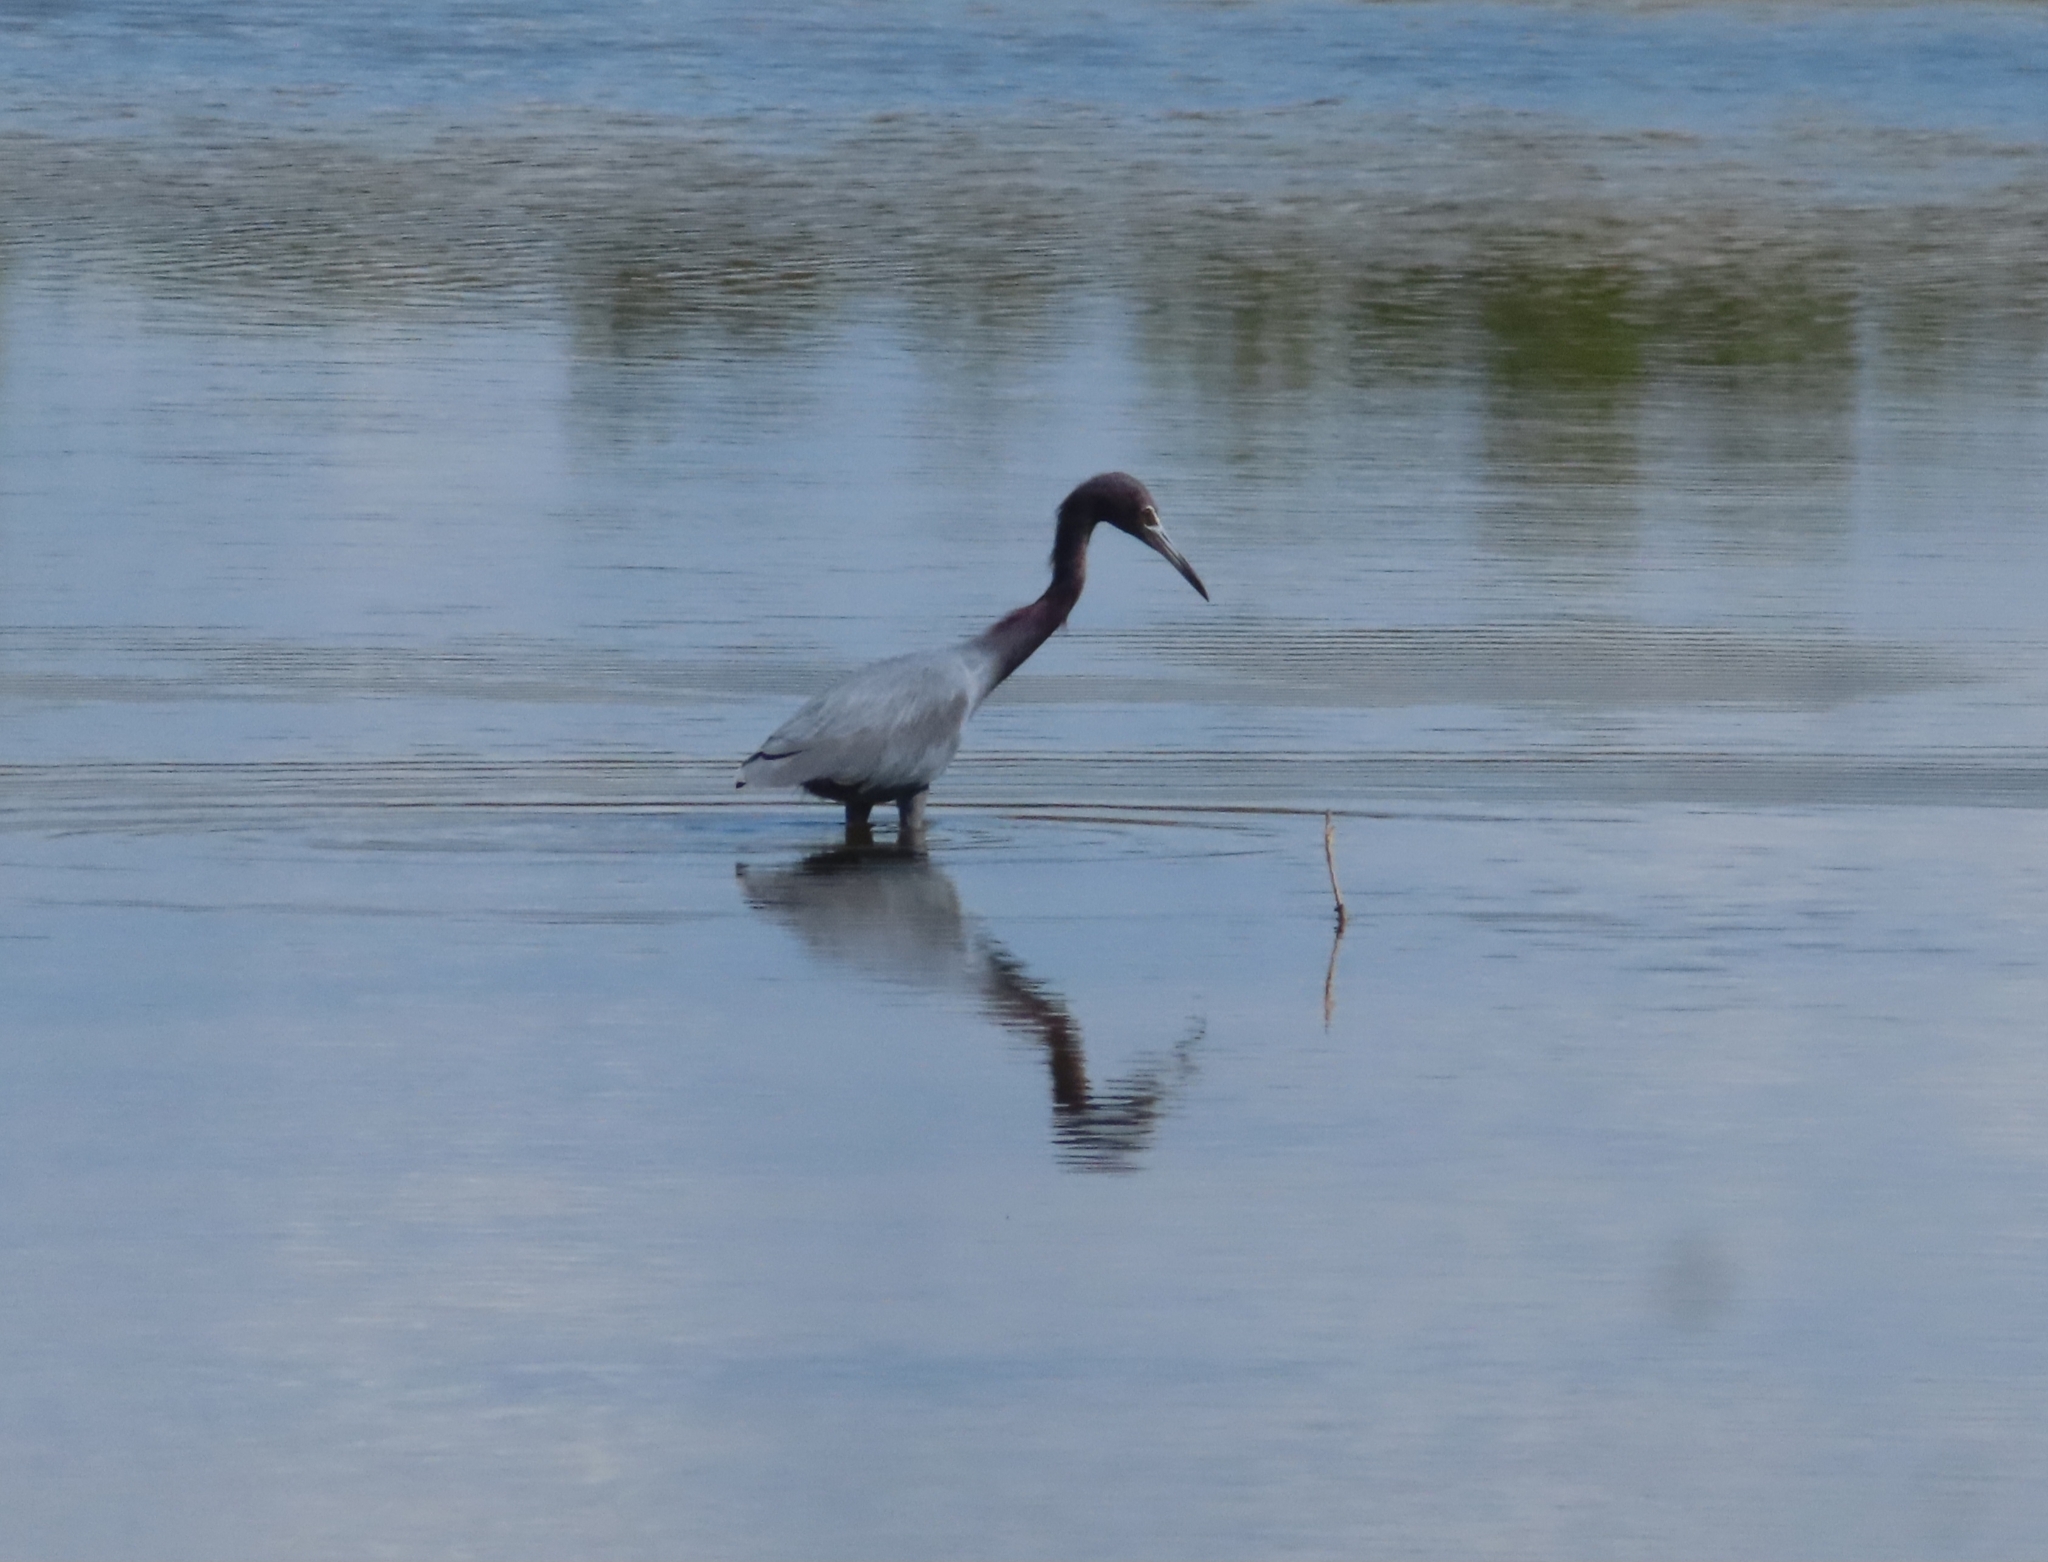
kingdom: Animalia
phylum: Chordata
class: Aves
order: Pelecaniformes
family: Ardeidae
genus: Egretta
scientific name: Egretta caerulea
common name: Little blue heron
